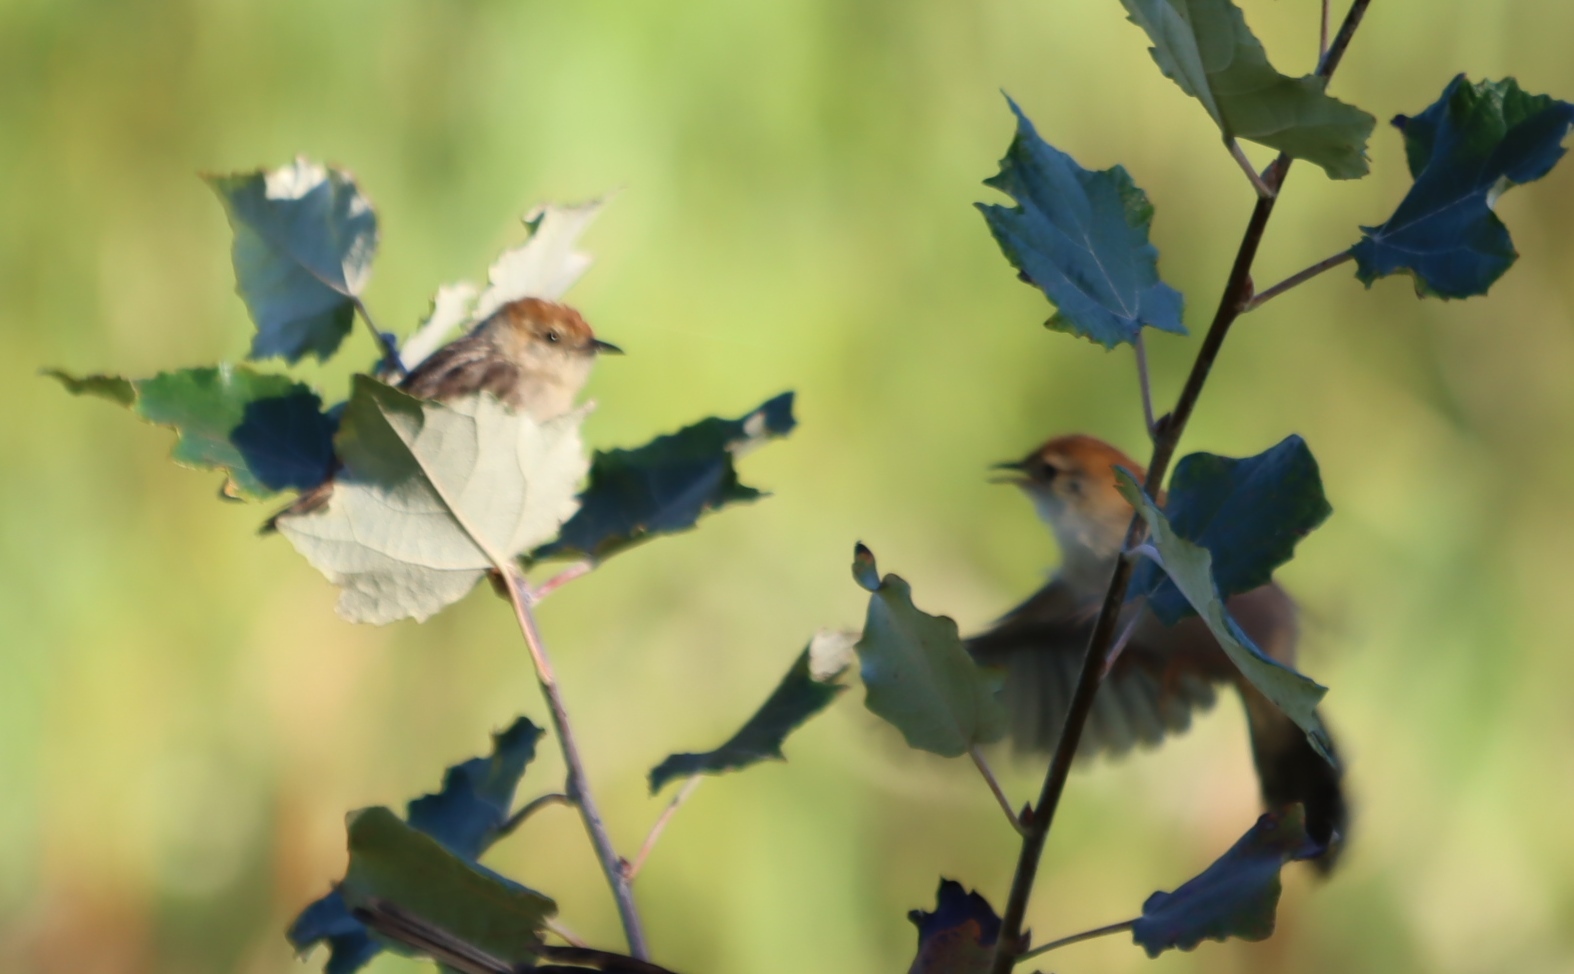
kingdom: Animalia
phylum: Chordata
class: Aves
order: Passeriformes
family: Cisticolidae
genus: Cisticola
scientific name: Cisticola tinniens
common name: Levaillant's cisticola
